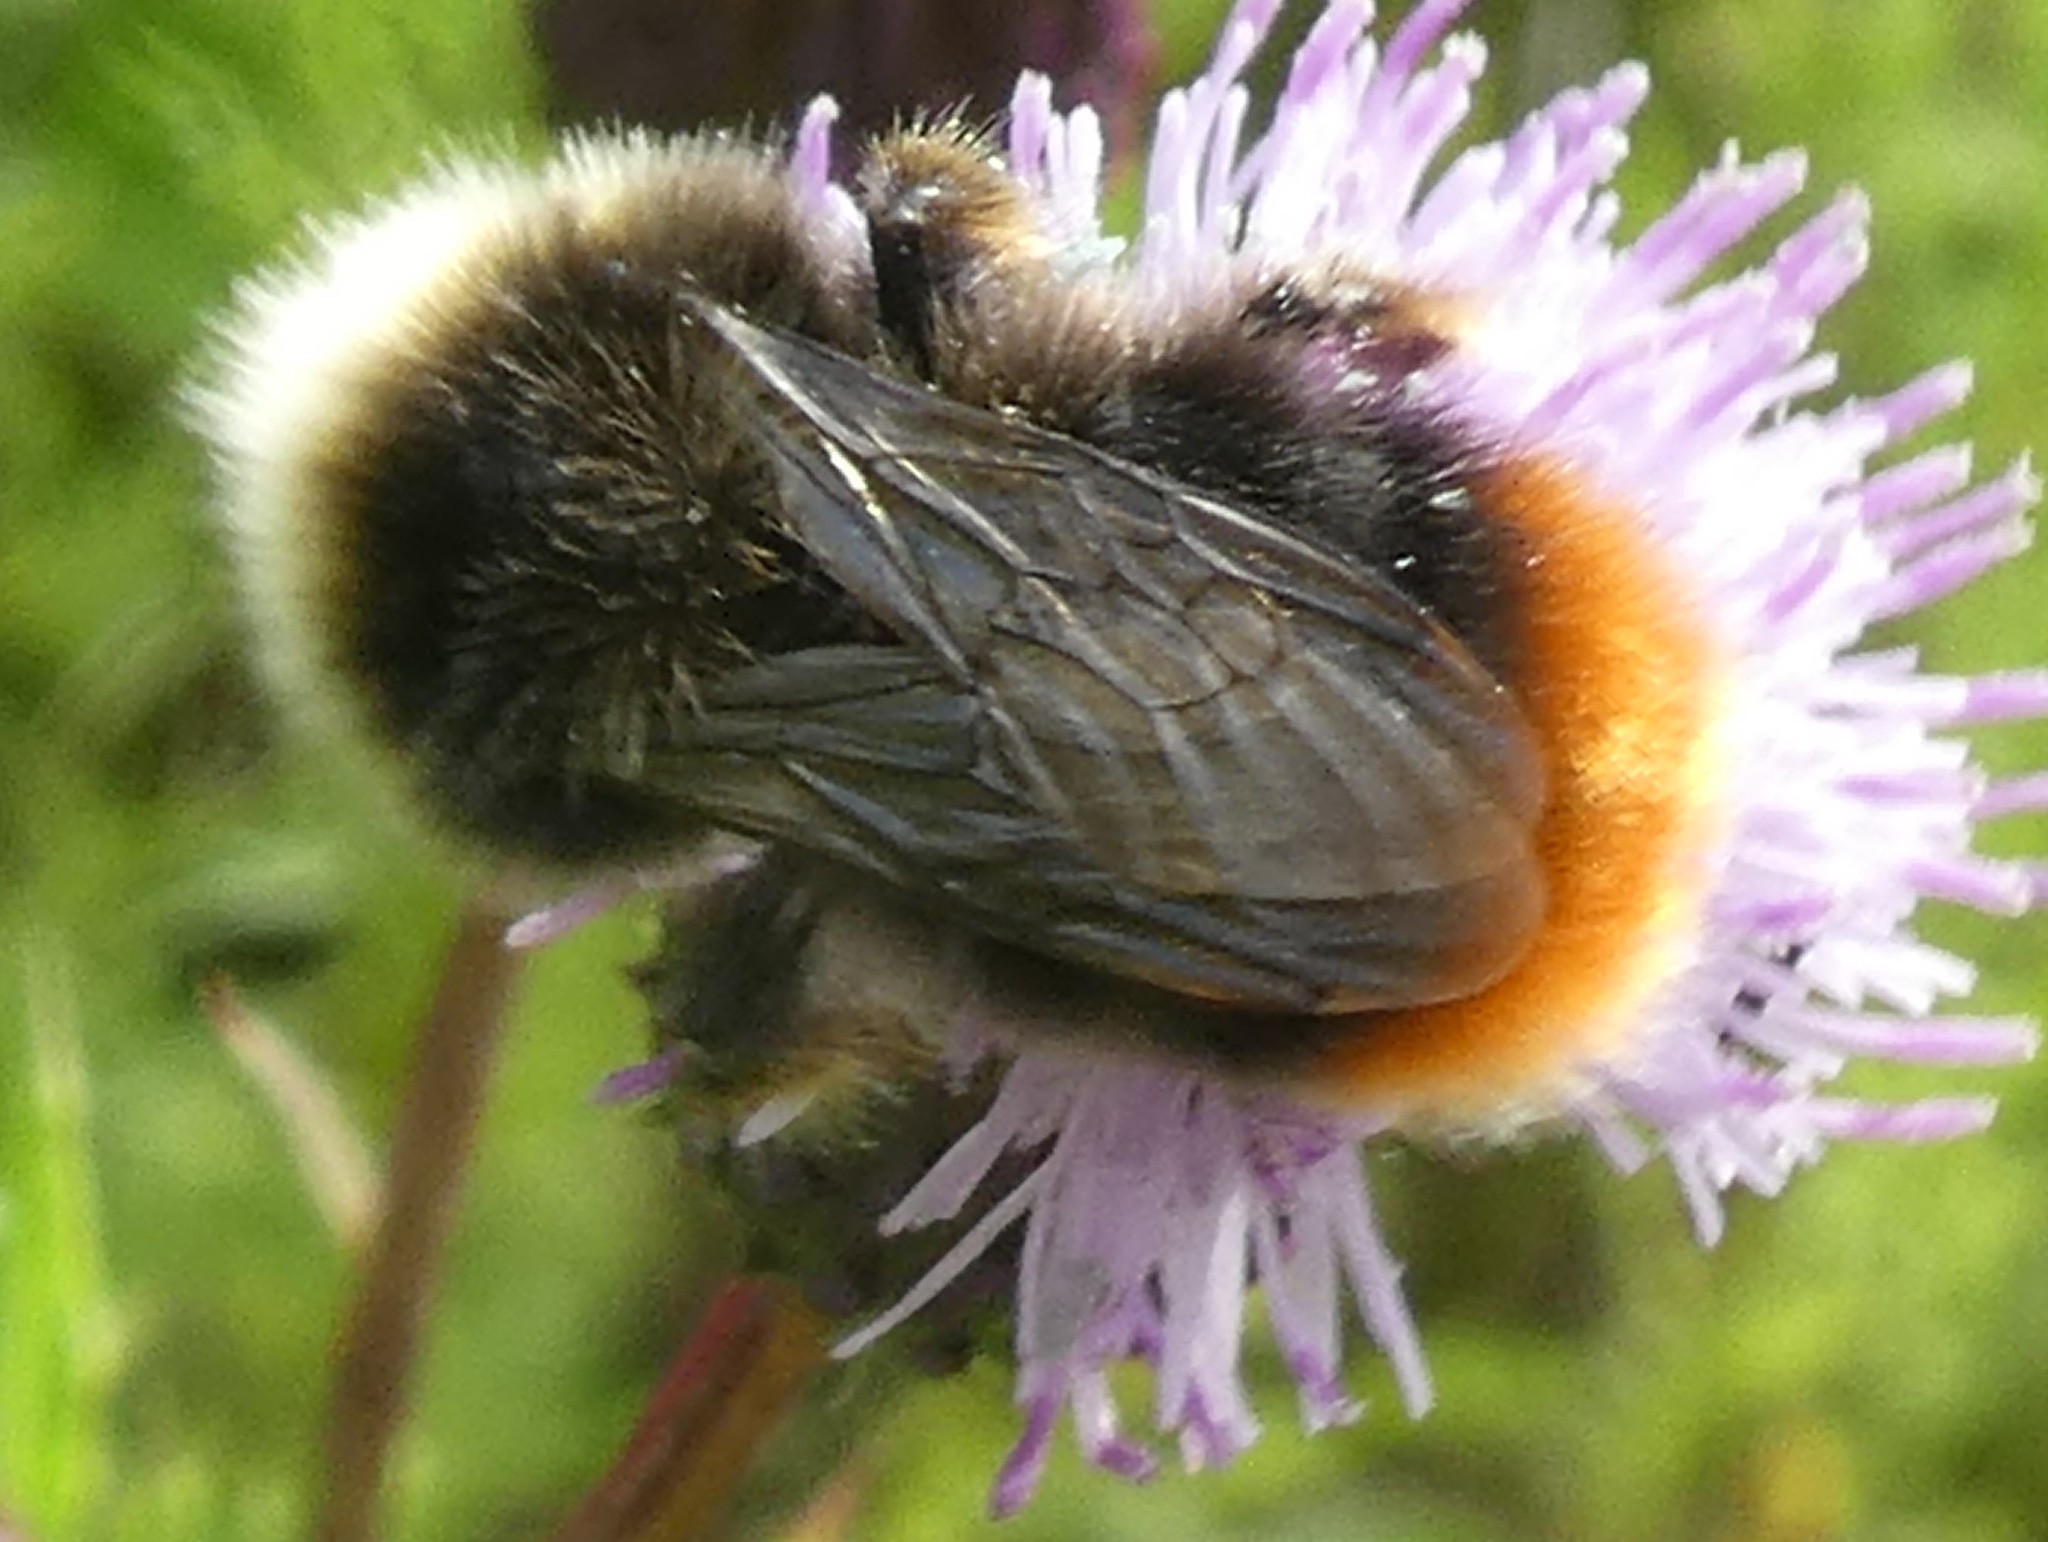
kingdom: Animalia
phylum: Arthropoda
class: Insecta
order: Hymenoptera
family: Apidae
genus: Bombus
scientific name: Bombus lapidarius
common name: Large red-tailed humble-bee
